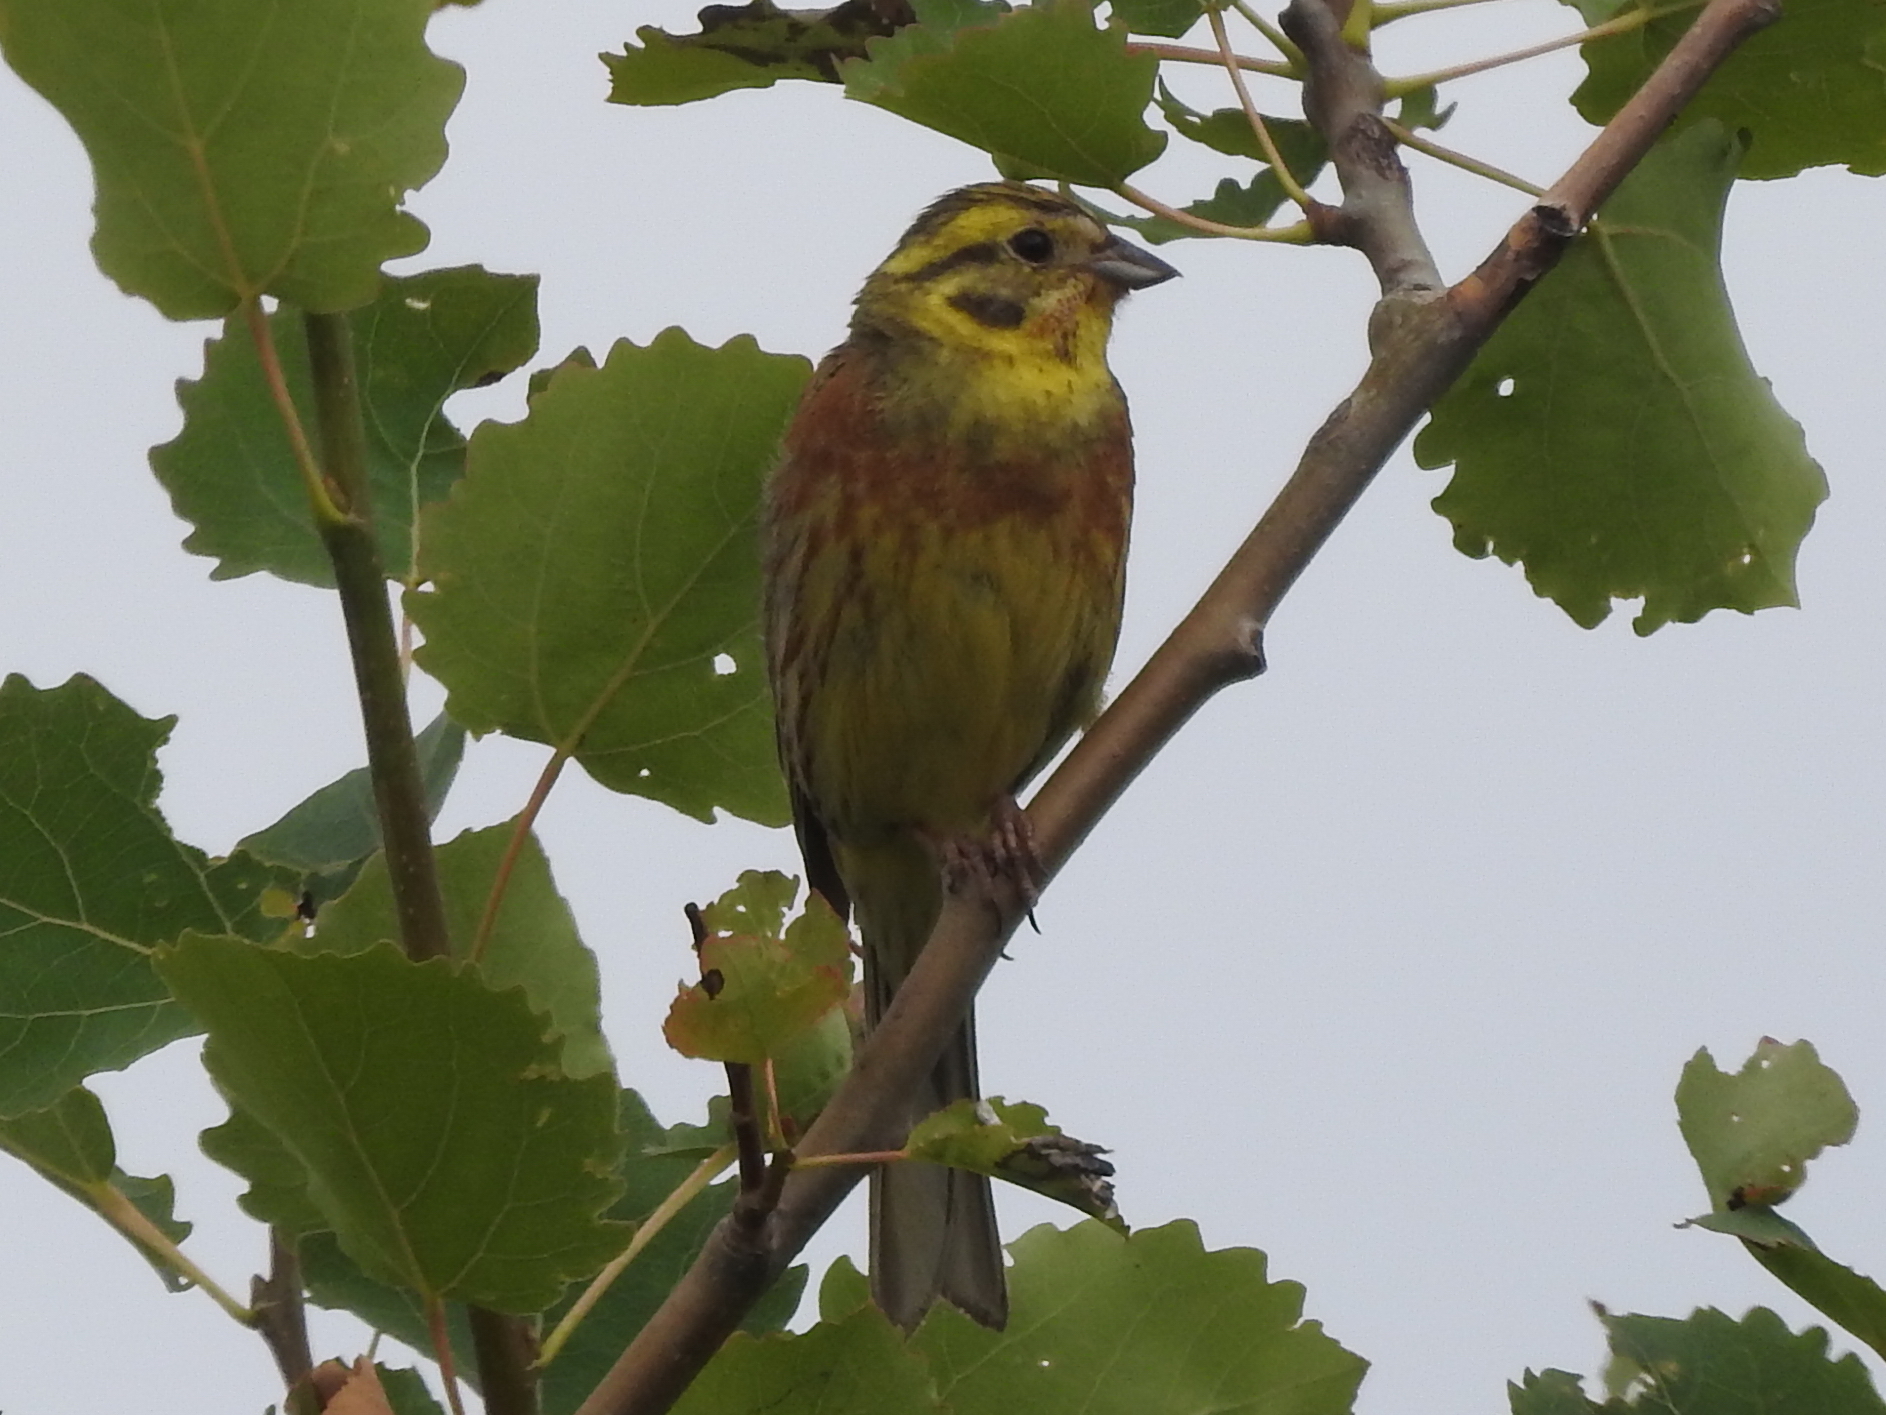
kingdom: Animalia
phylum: Chordata
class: Aves
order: Passeriformes
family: Emberizidae
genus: Emberiza
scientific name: Emberiza citrinella
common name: Yellowhammer
